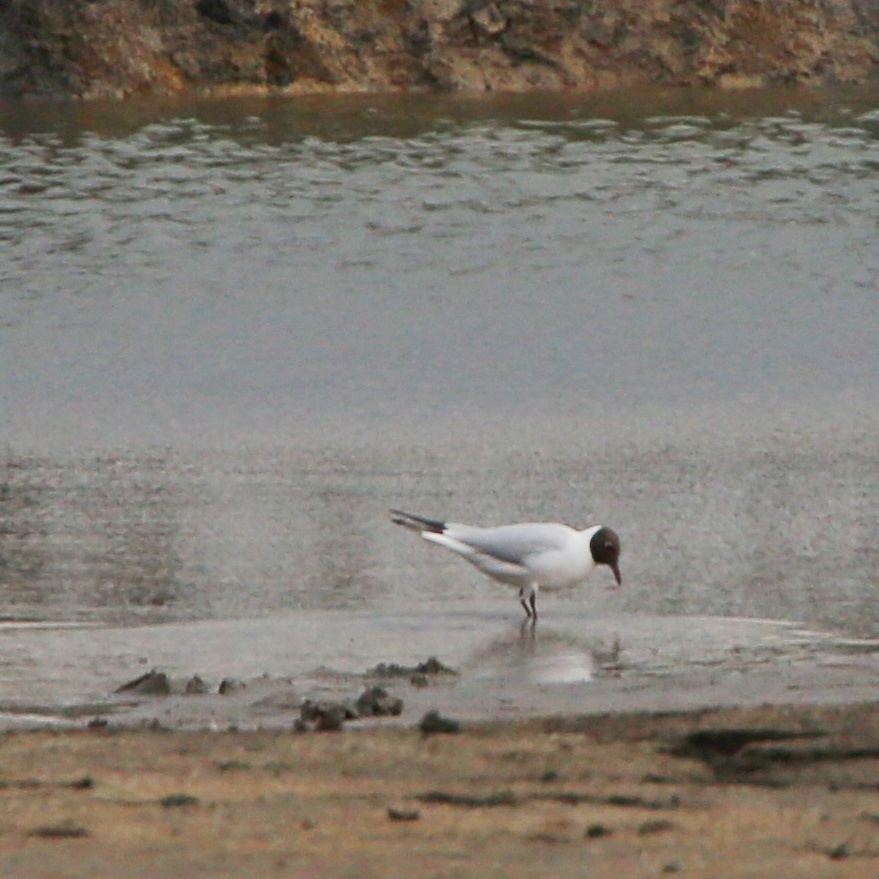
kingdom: Animalia
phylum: Chordata
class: Aves
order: Charadriiformes
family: Laridae
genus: Chroicocephalus
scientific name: Chroicocephalus ridibundus
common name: Black-headed gull
